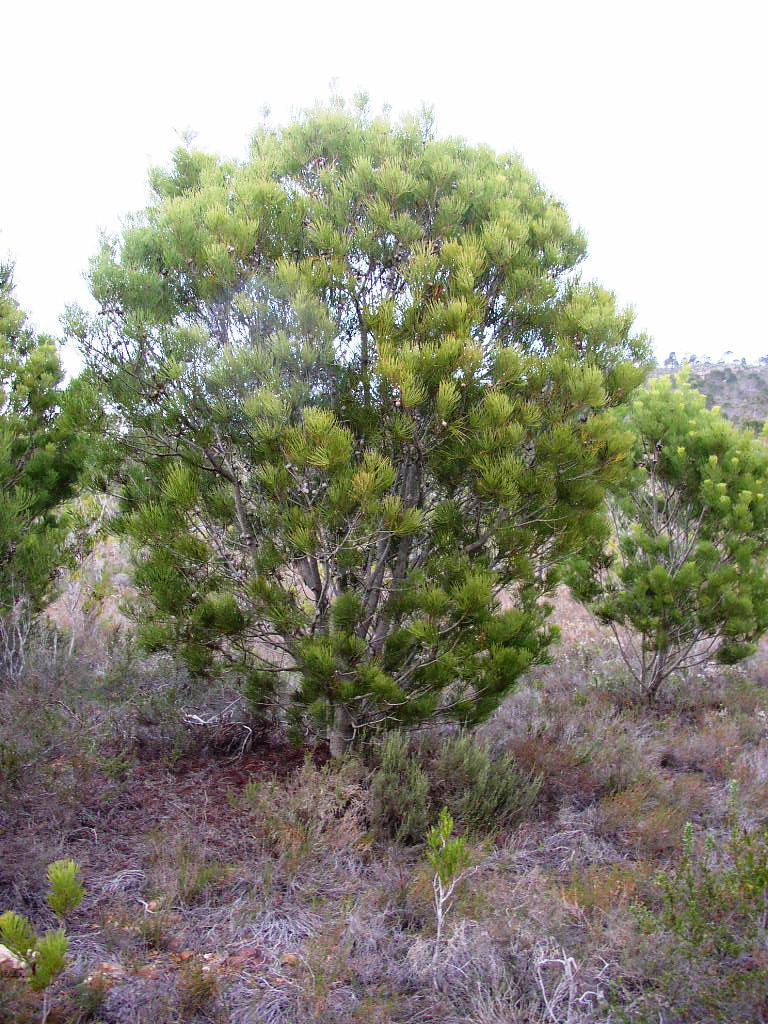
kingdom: Plantae
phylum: Tracheophyta
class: Magnoliopsida
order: Proteales
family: Proteaceae
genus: Hakea
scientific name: Hakea drupacea
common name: Sweet hakea
